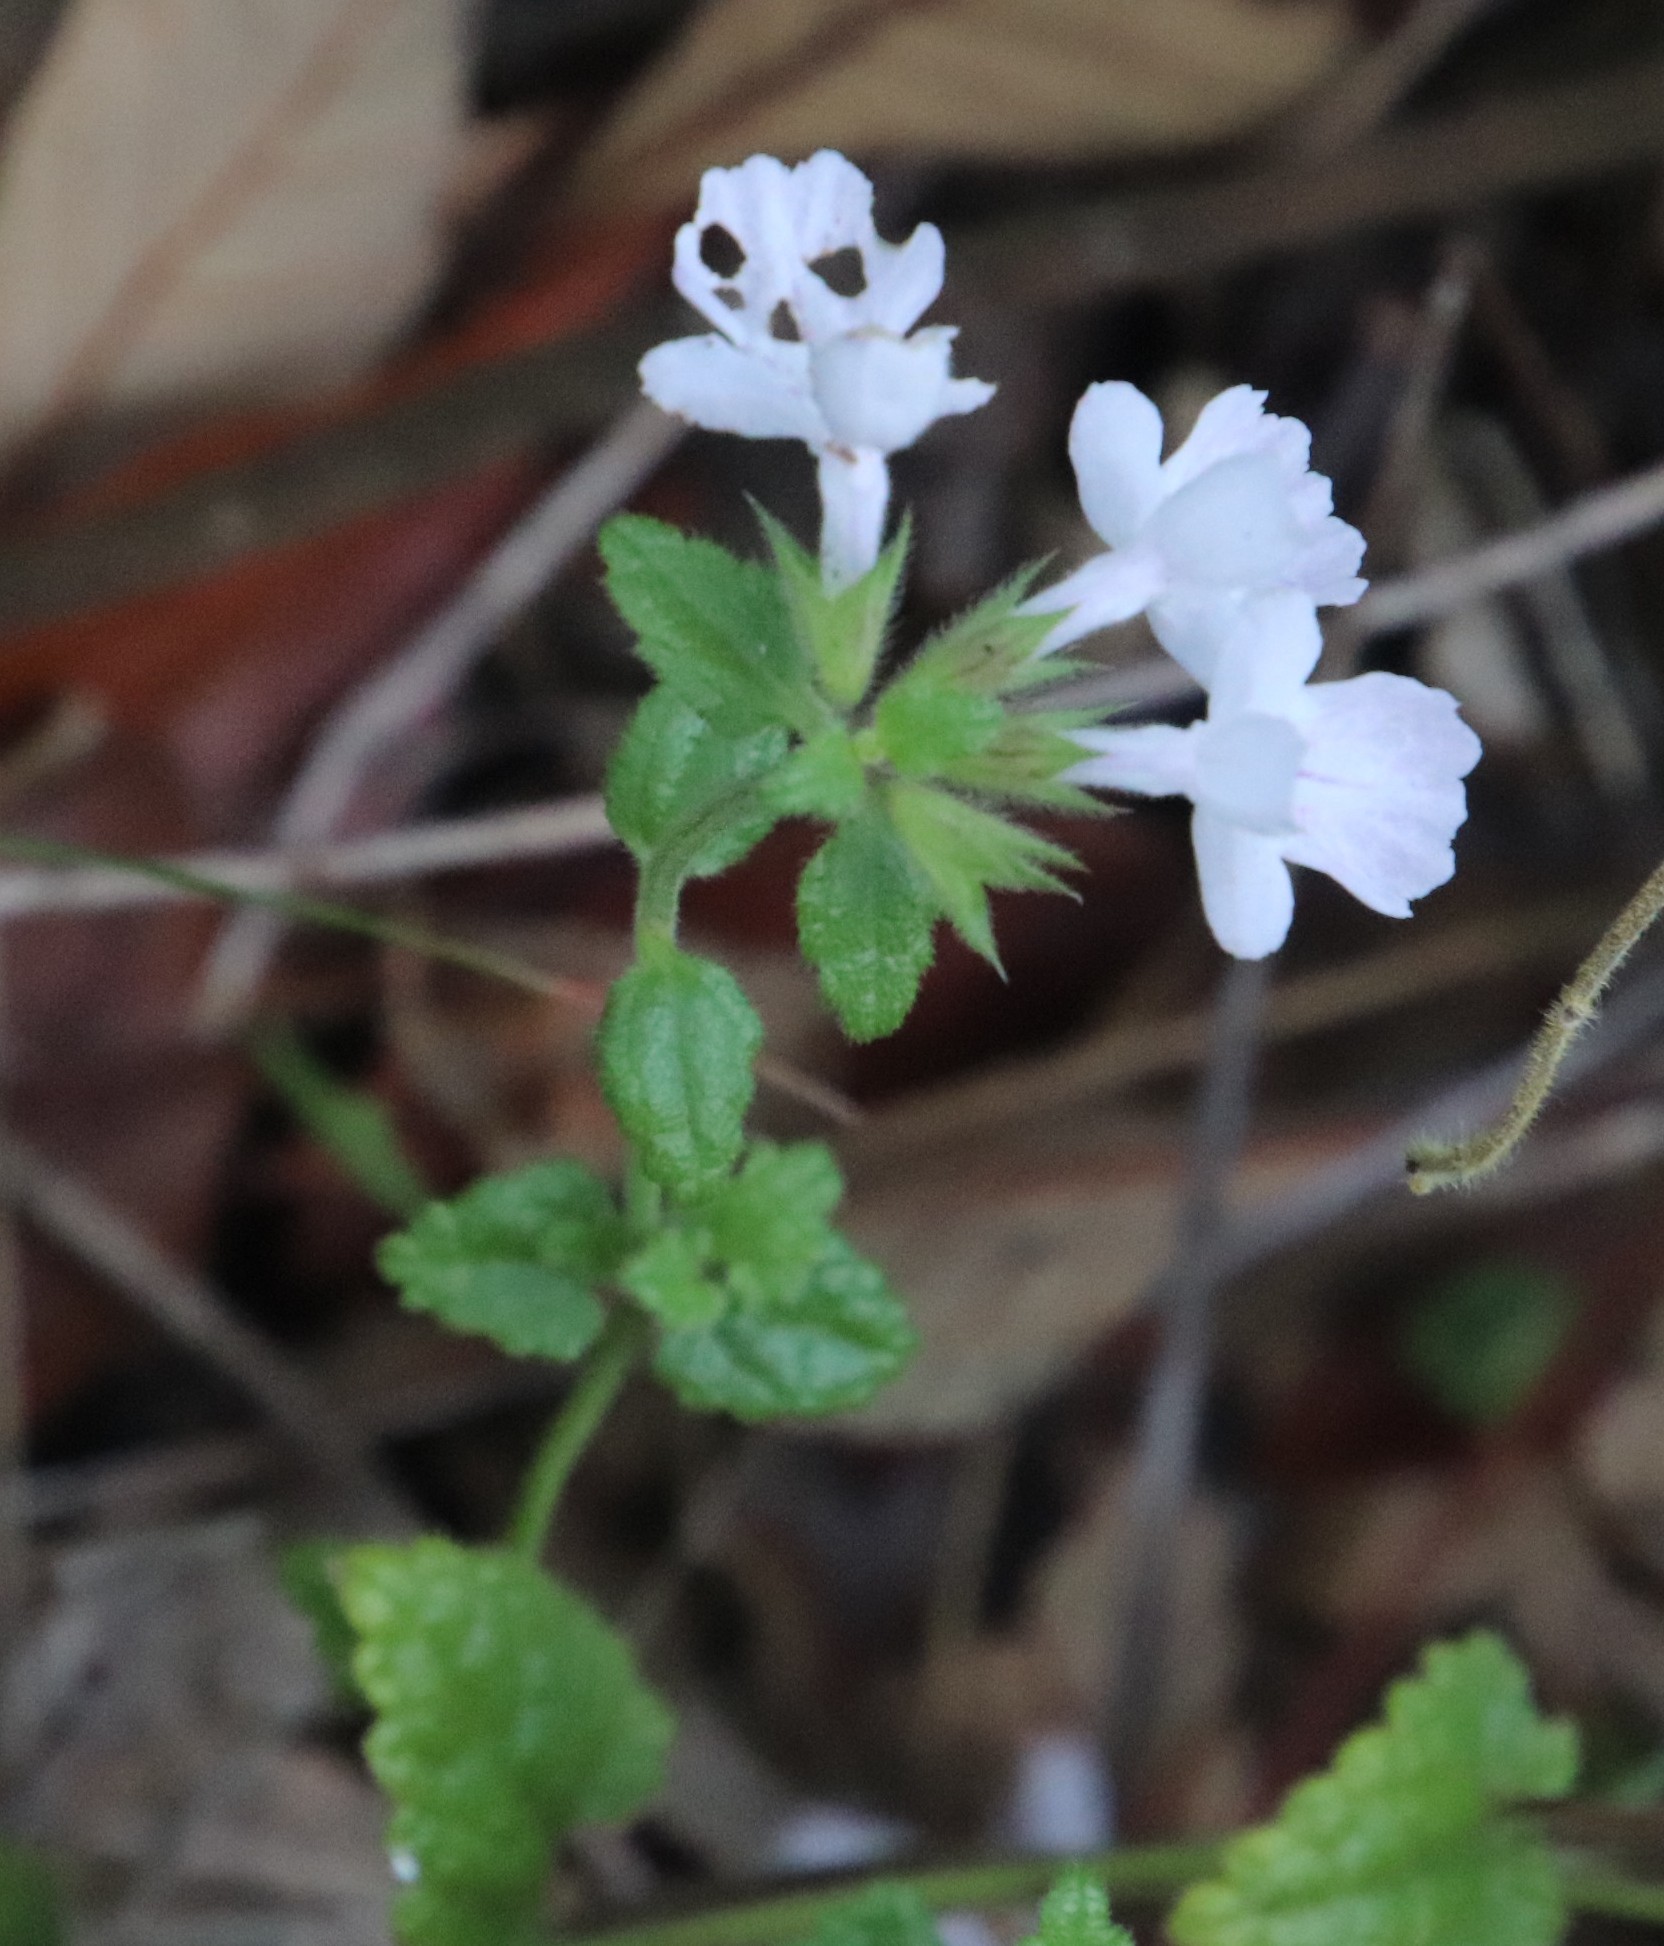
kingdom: Plantae
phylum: Tracheophyta
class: Magnoliopsida
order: Lamiales
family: Lamiaceae
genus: Stachys
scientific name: Stachys aethiopica
